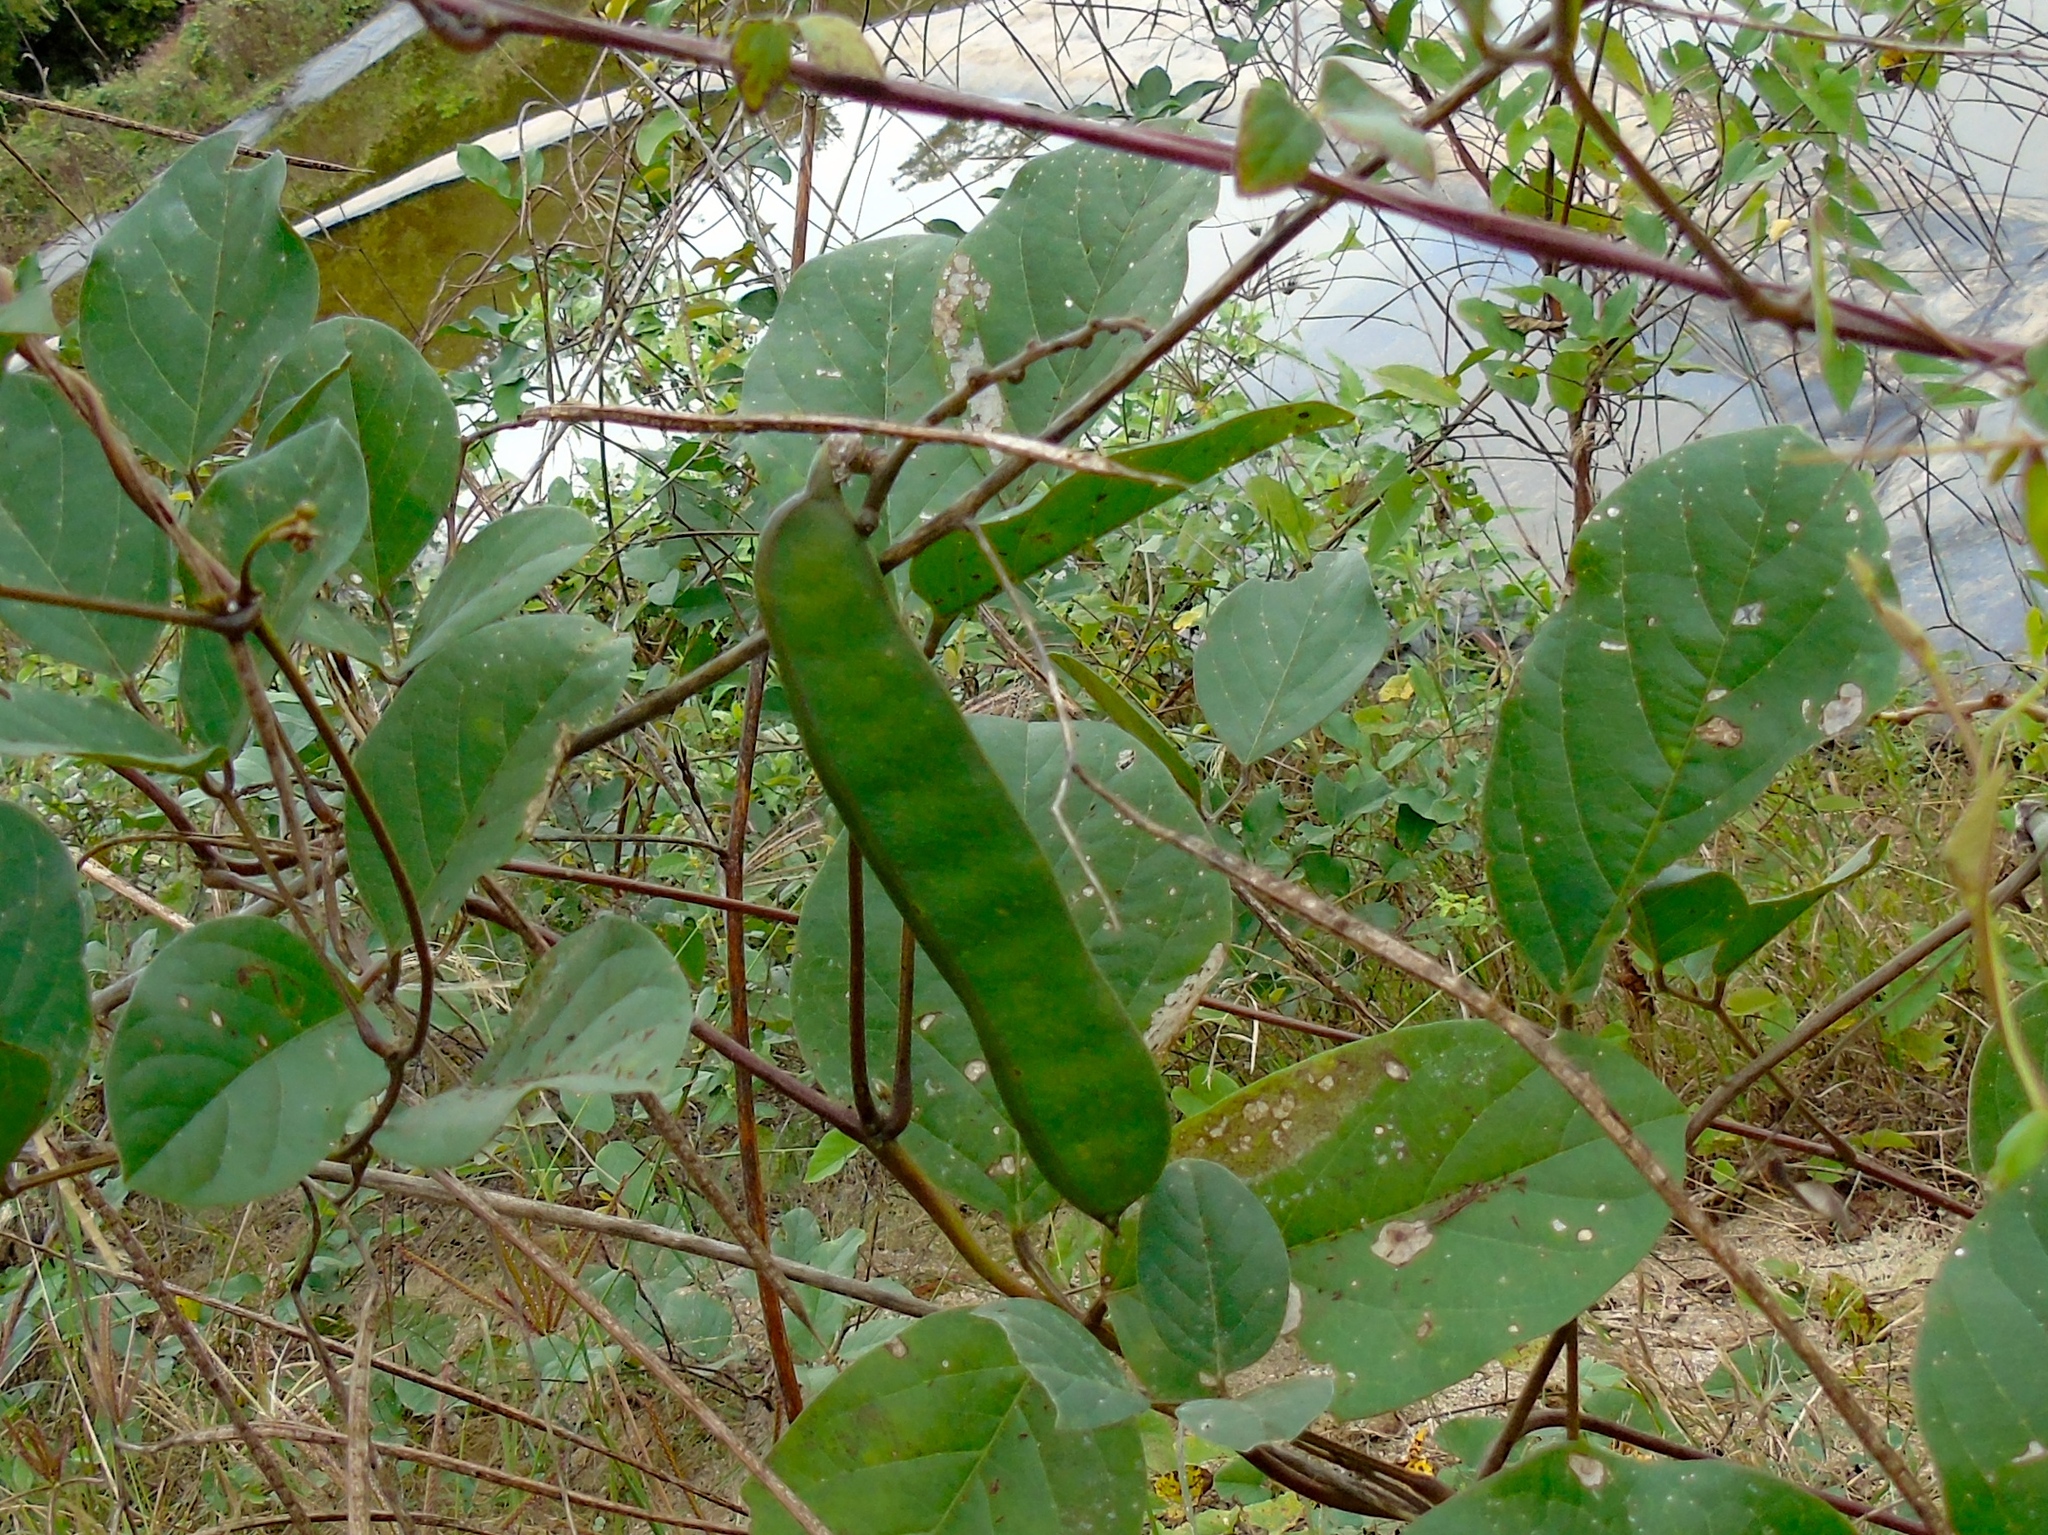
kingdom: Plantae
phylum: Tracheophyta
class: Magnoliopsida
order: Fabales
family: Fabaceae
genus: Canavalia
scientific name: Canavalia brasiliensis
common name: Barbicou-bean
